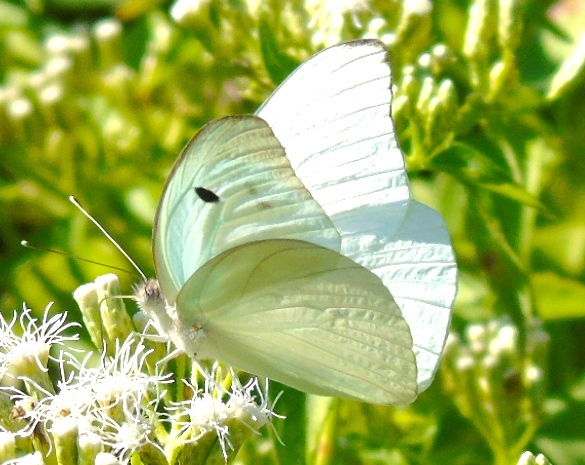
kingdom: Animalia
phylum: Arthropoda
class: Insecta
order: Lepidoptera
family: Pieridae
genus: Ganyra
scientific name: Ganyra josephina
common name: Giant white
